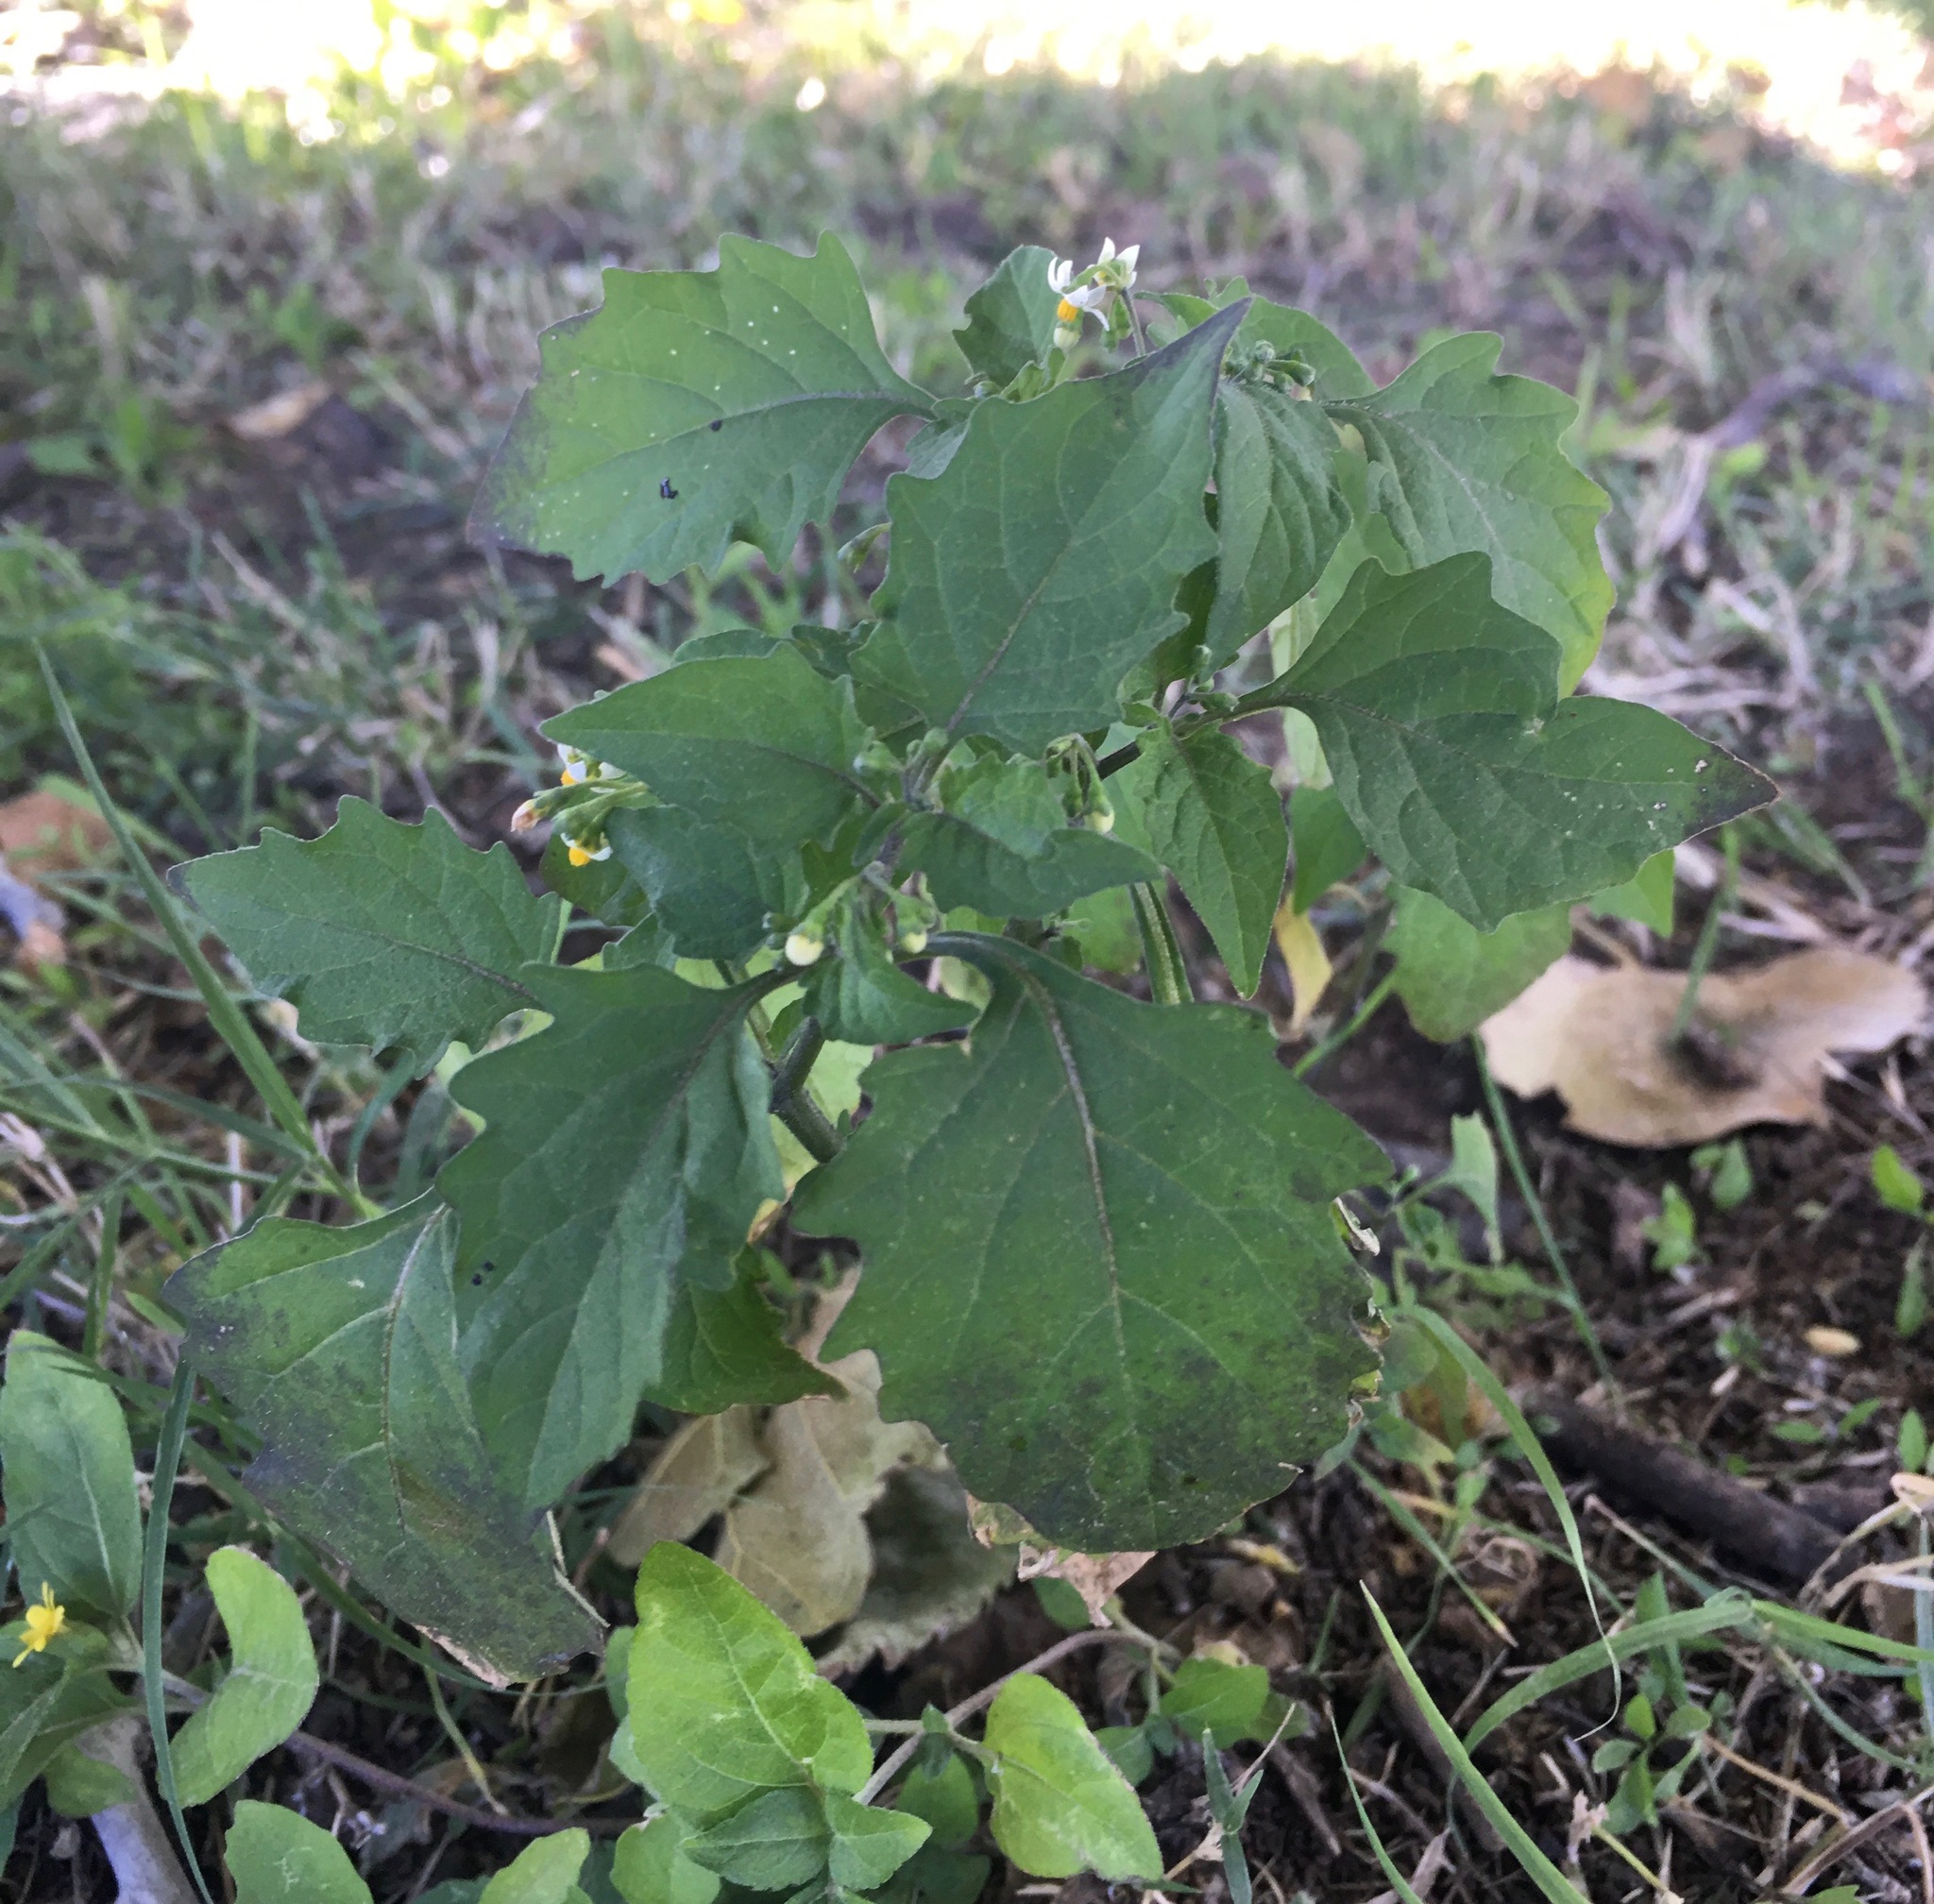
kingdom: Plantae
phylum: Tracheophyta
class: Magnoliopsida
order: Solanales
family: Solanaceae
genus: Solanum
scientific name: Solanum nigrum
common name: Black nightshade
